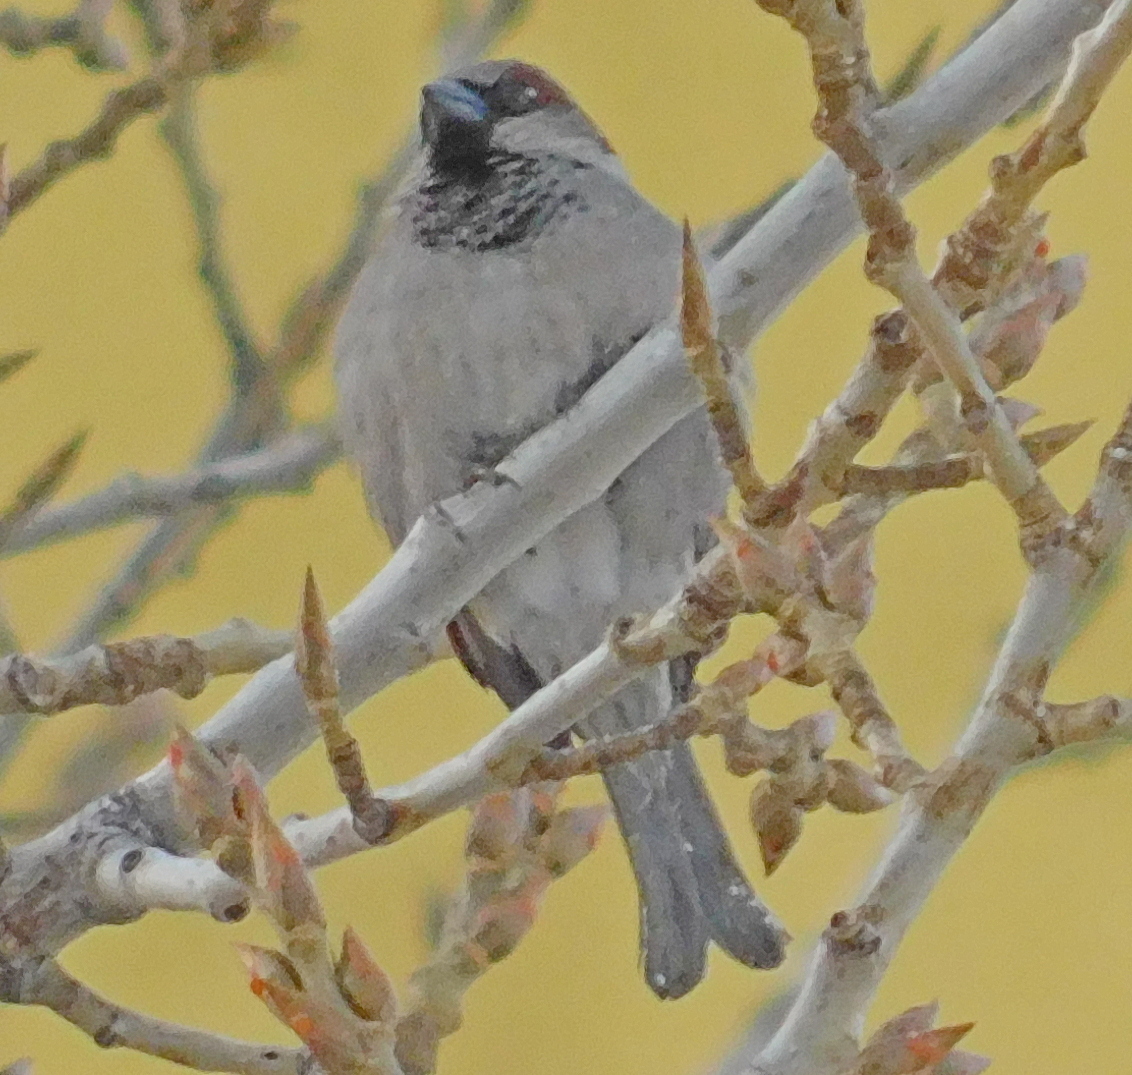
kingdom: Animalia
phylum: Chordata
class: Aves
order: Passeriformes
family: Passeridae
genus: Passer
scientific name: Passer domesticus
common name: House sparrow
